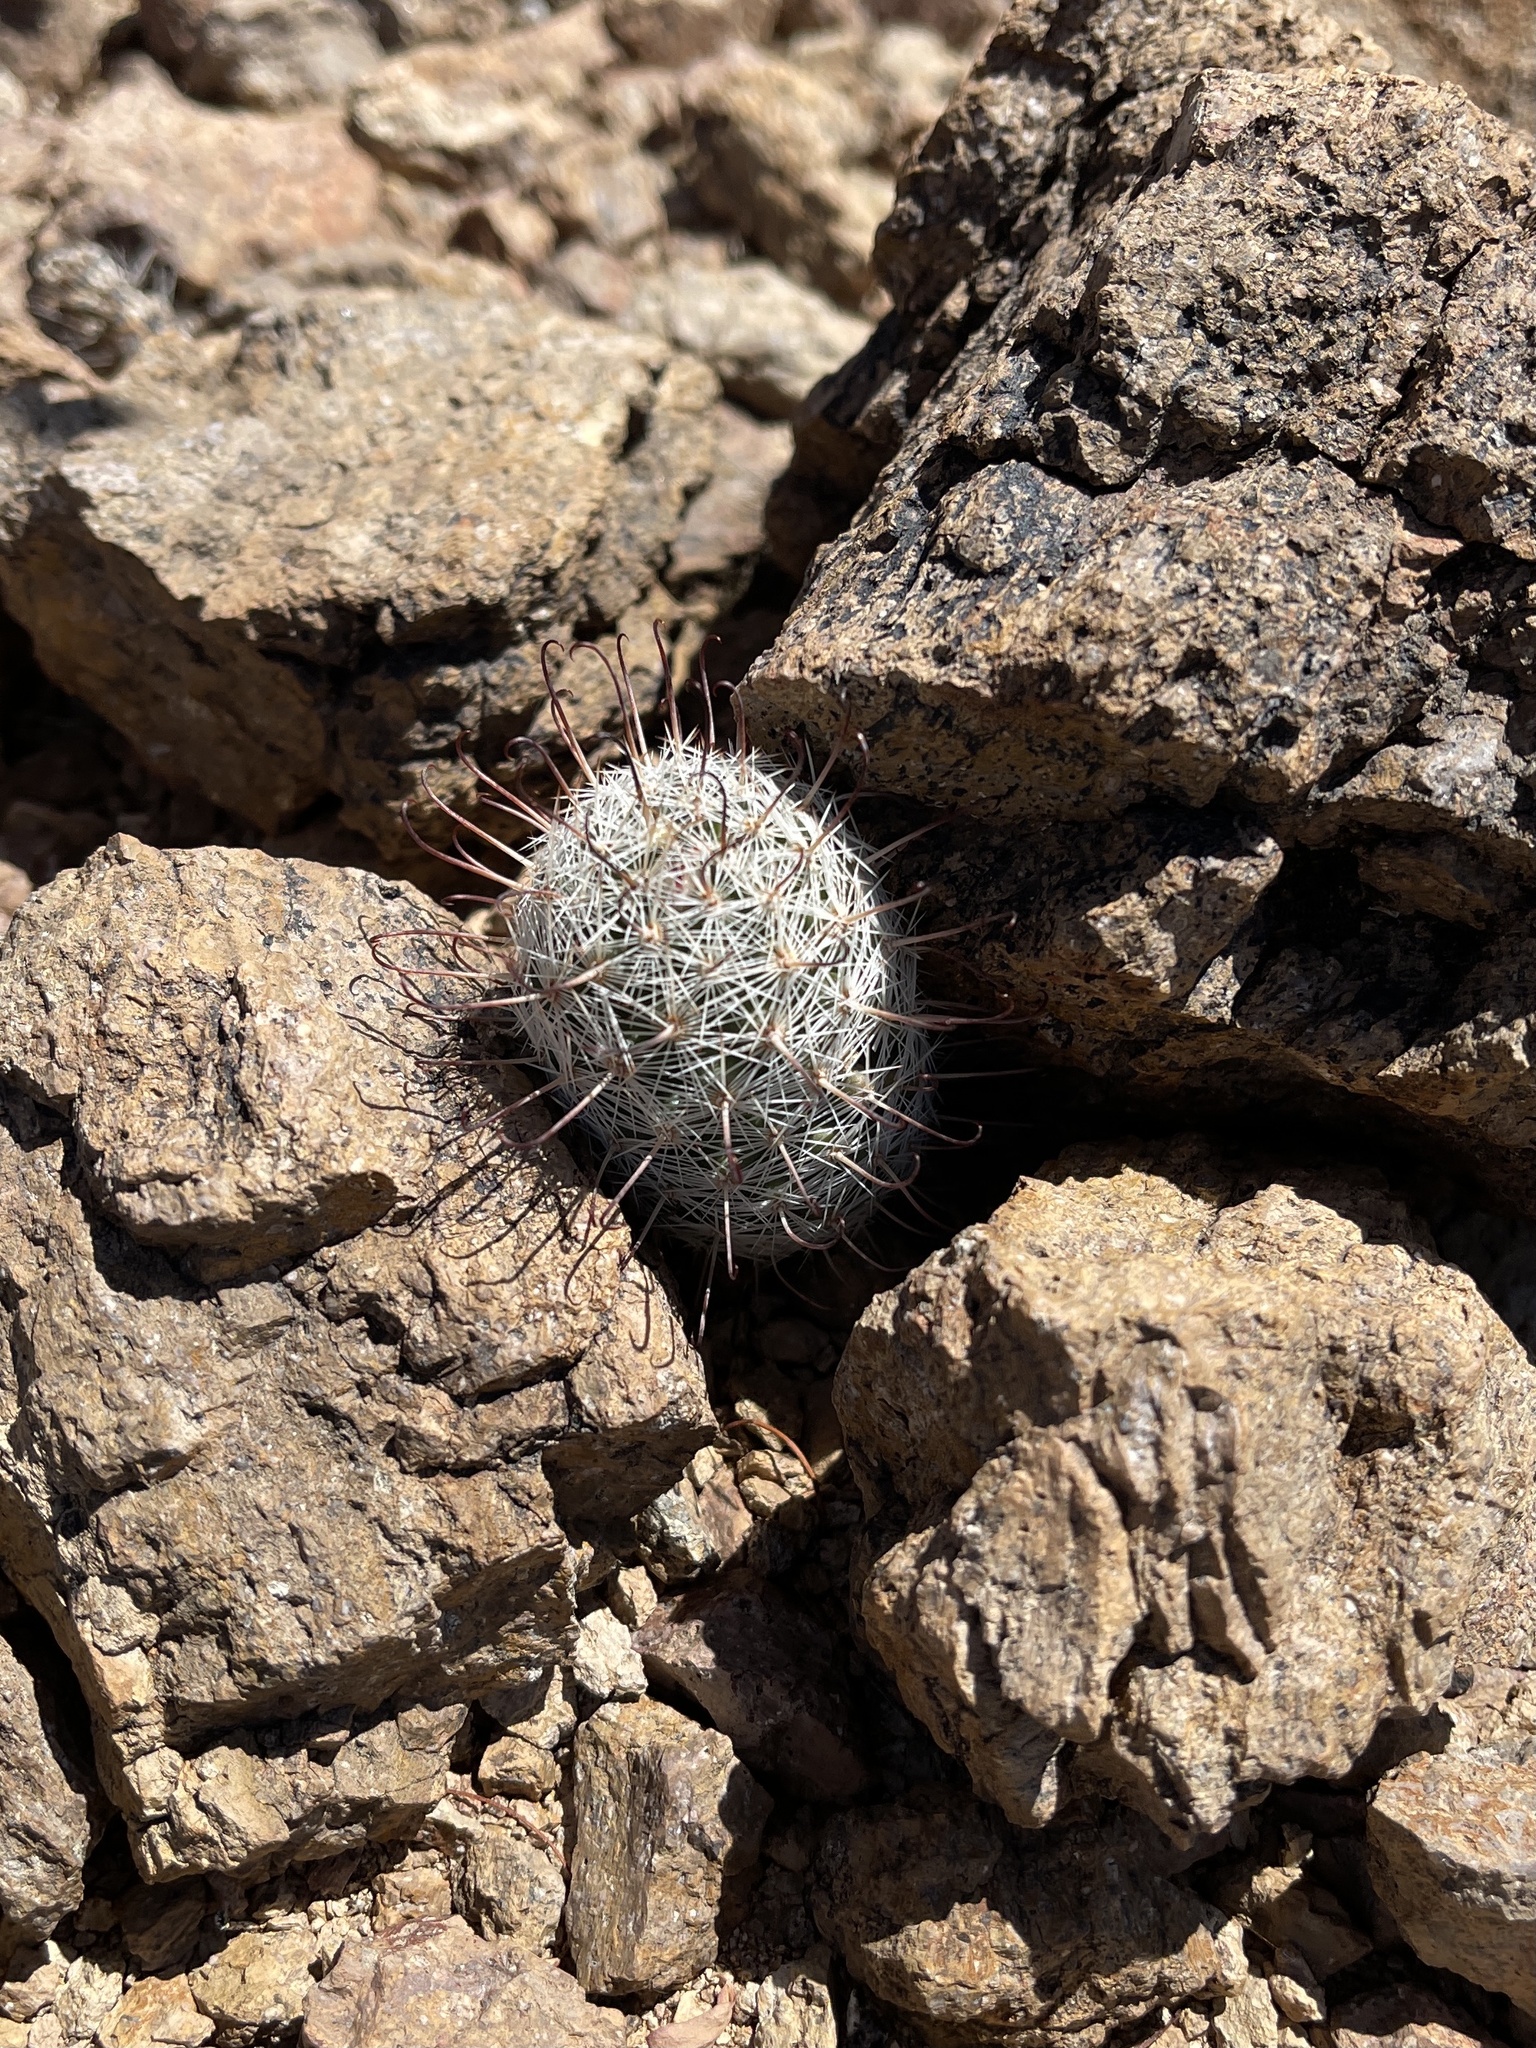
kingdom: Plantae
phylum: Tracheophyta
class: Magnoliopsida
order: Caryophyllales
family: Cactaceae
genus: Cochemiea
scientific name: Cochemiea grahamii
